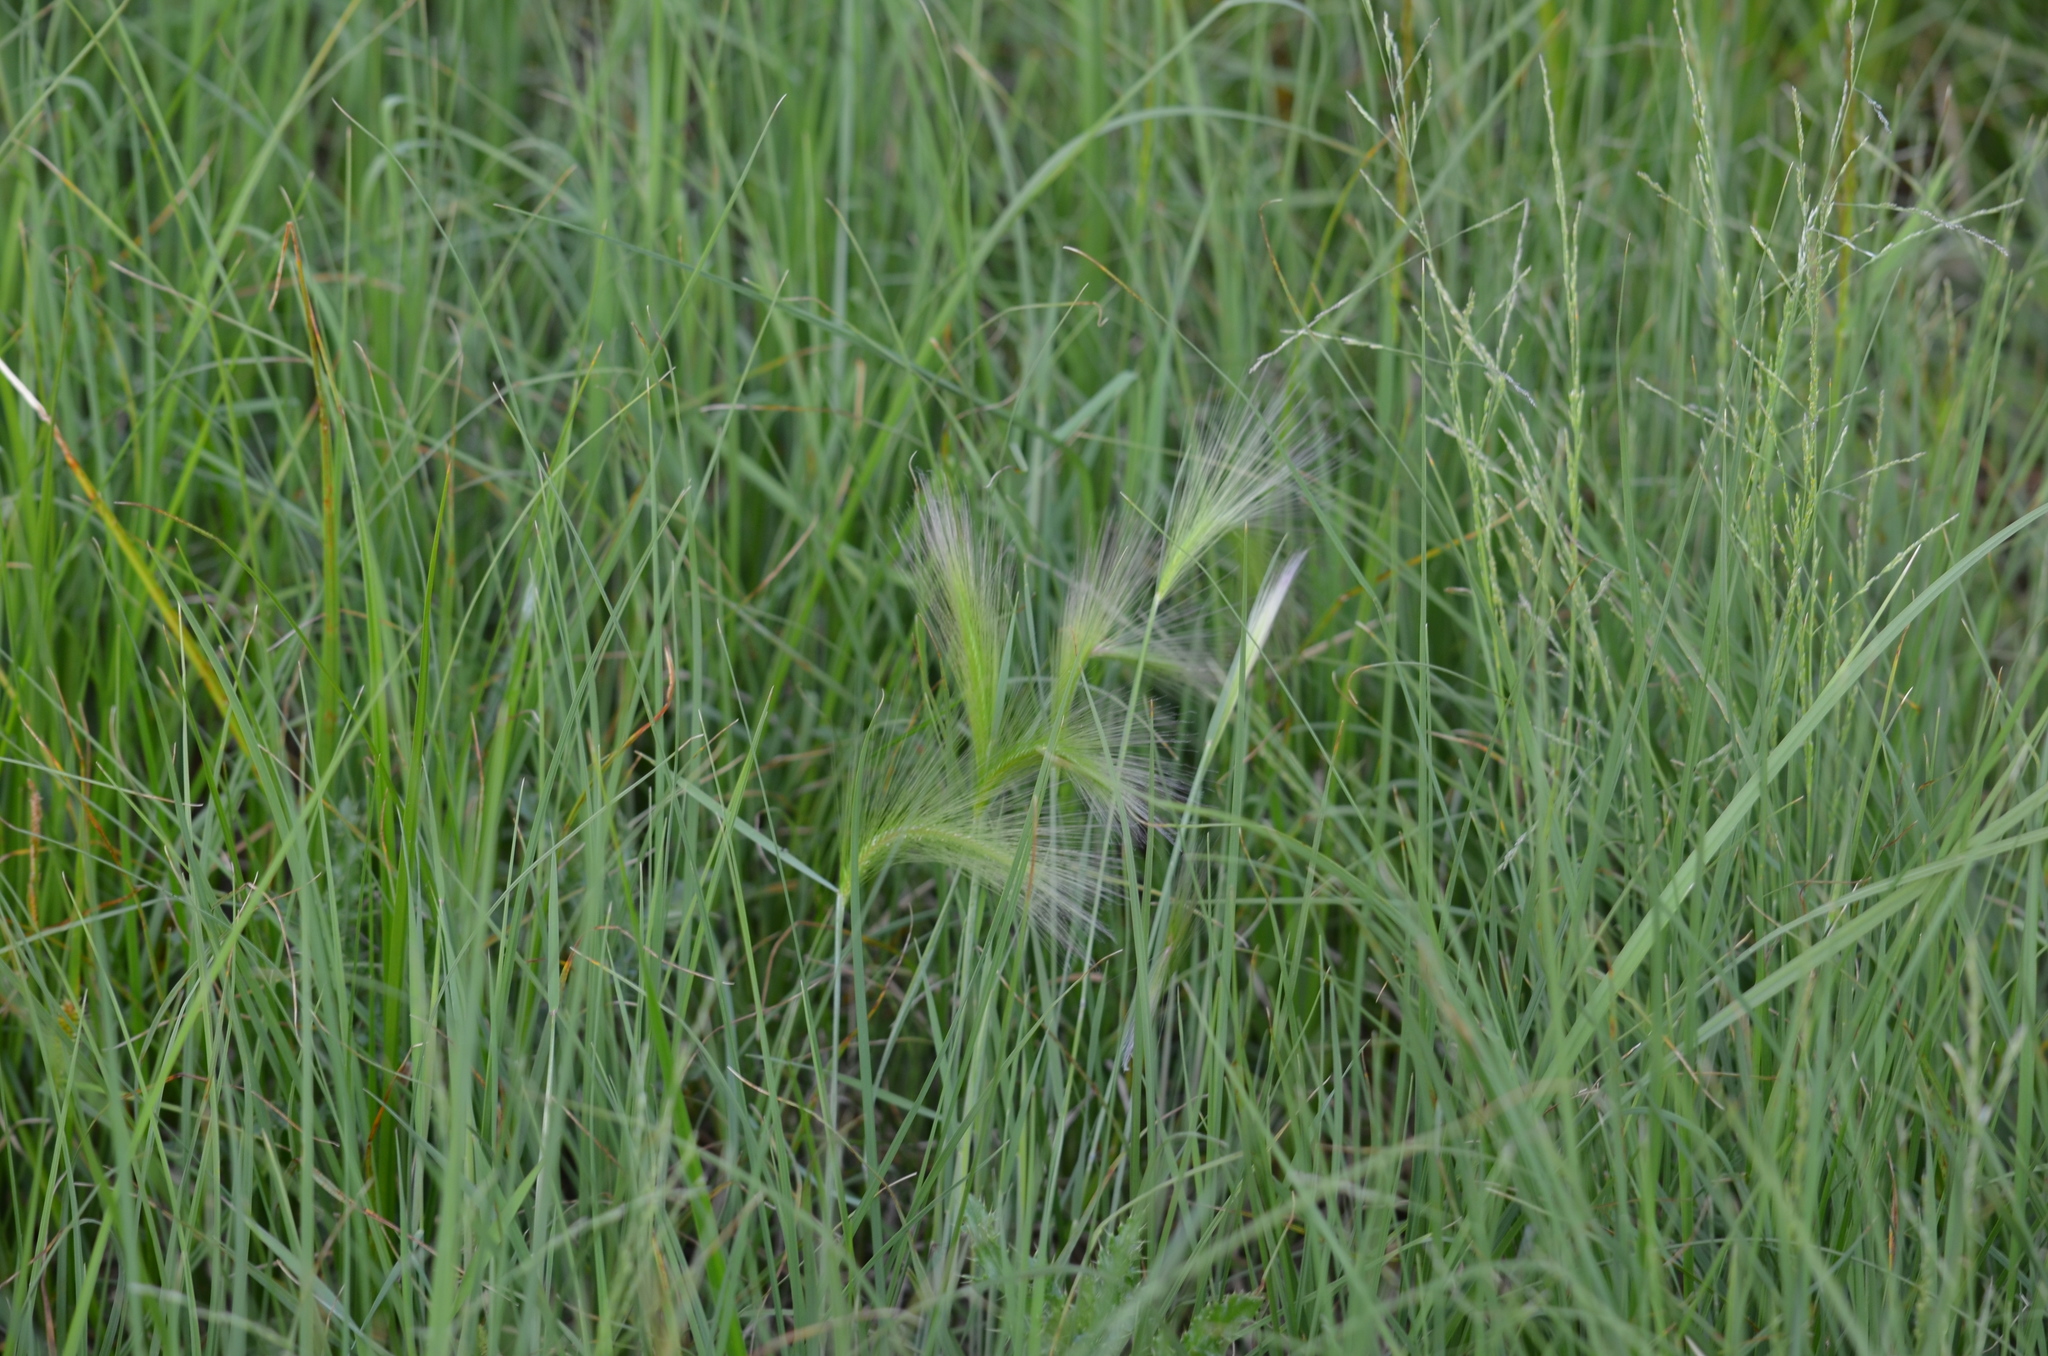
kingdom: Plantae
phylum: Tracheophyta
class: Liliopsida
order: Poales
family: Poaceae
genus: Hordeum
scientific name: Hordeum jubatum
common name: Foxtail barley
